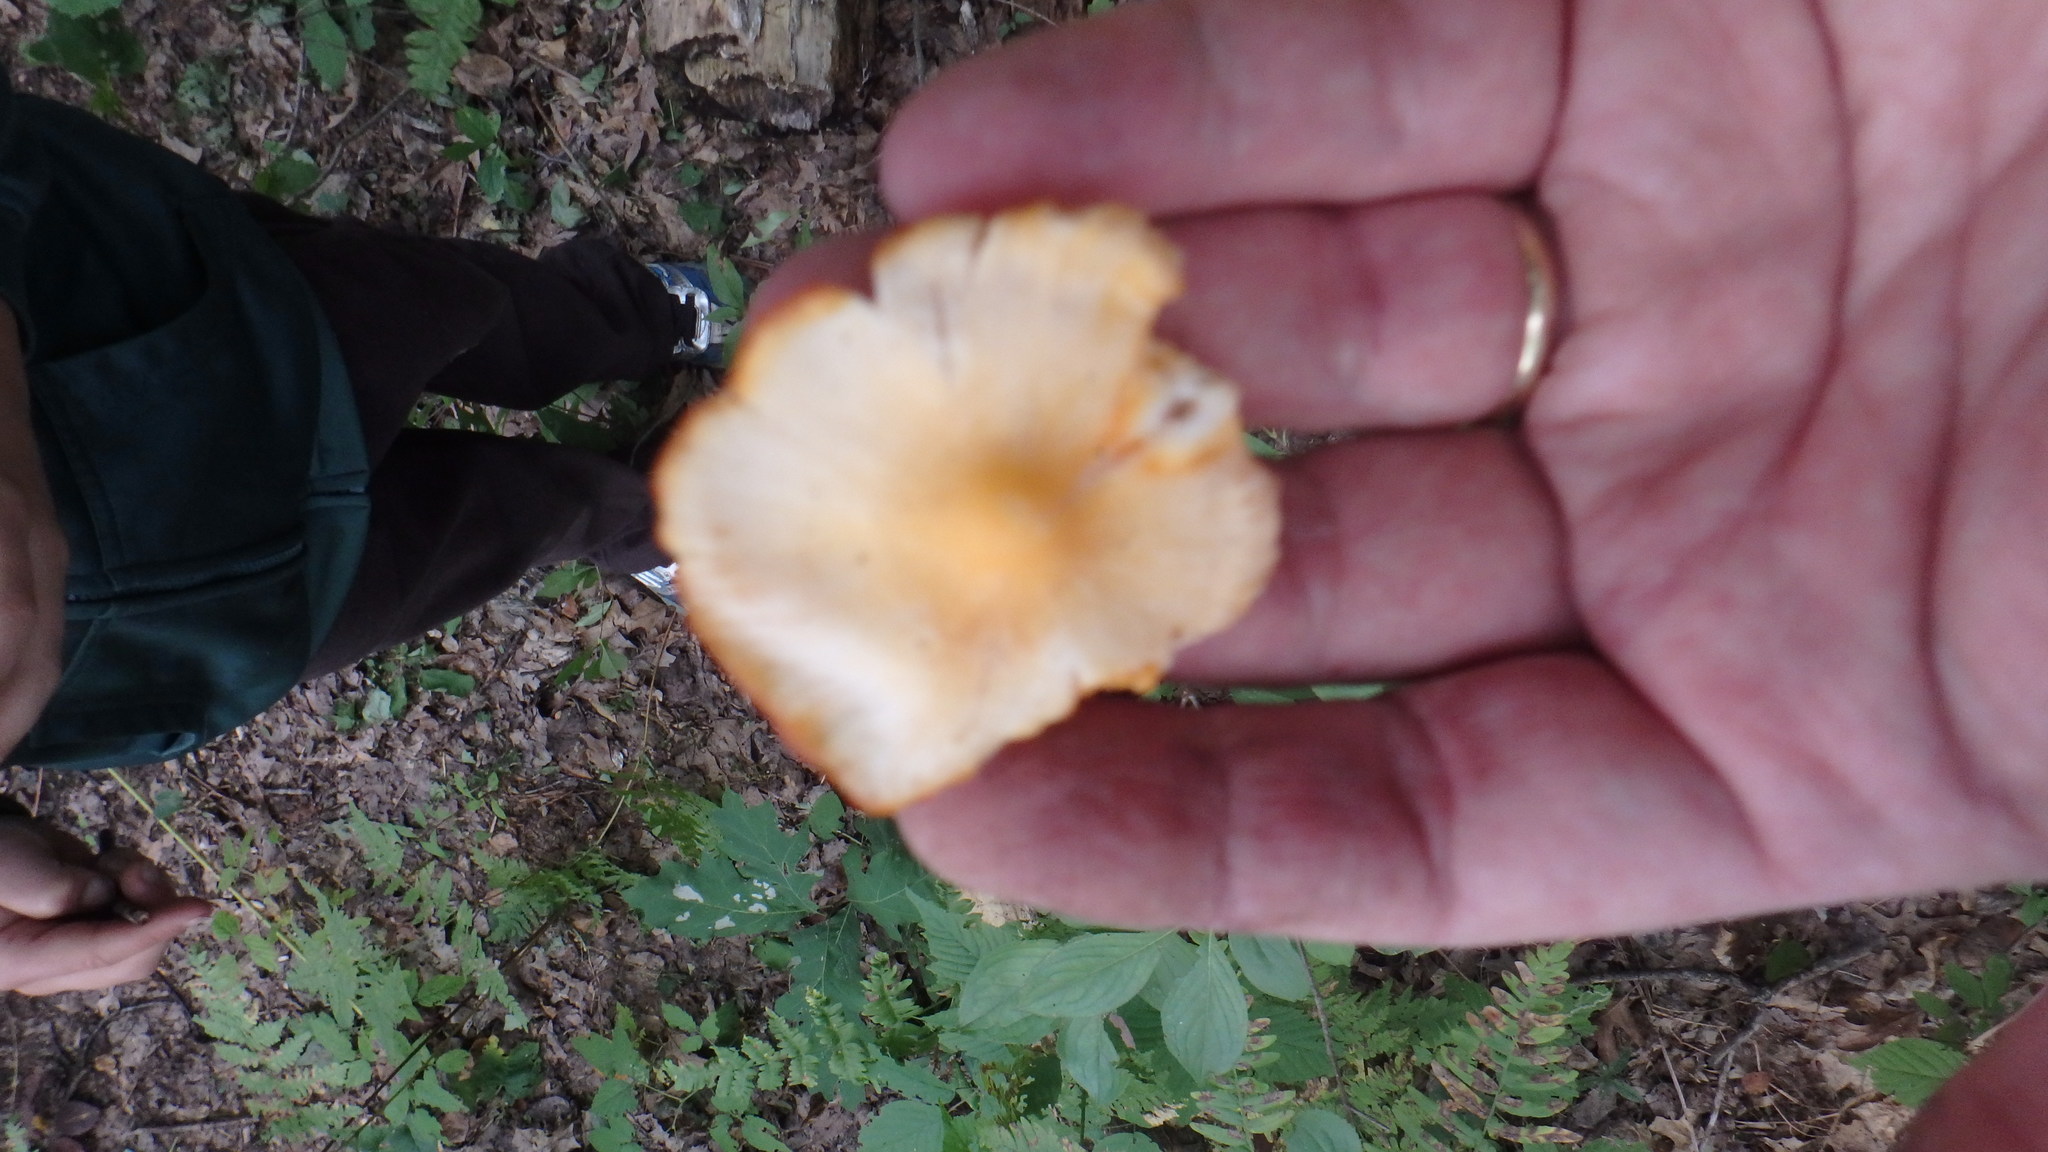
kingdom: Fungi
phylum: Basidiomycota
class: Agaricomycetes
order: Agaricales
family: Hygrophoraceae
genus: Humidicutis
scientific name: Humidicutis marginata
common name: Orange gilled waxcap
